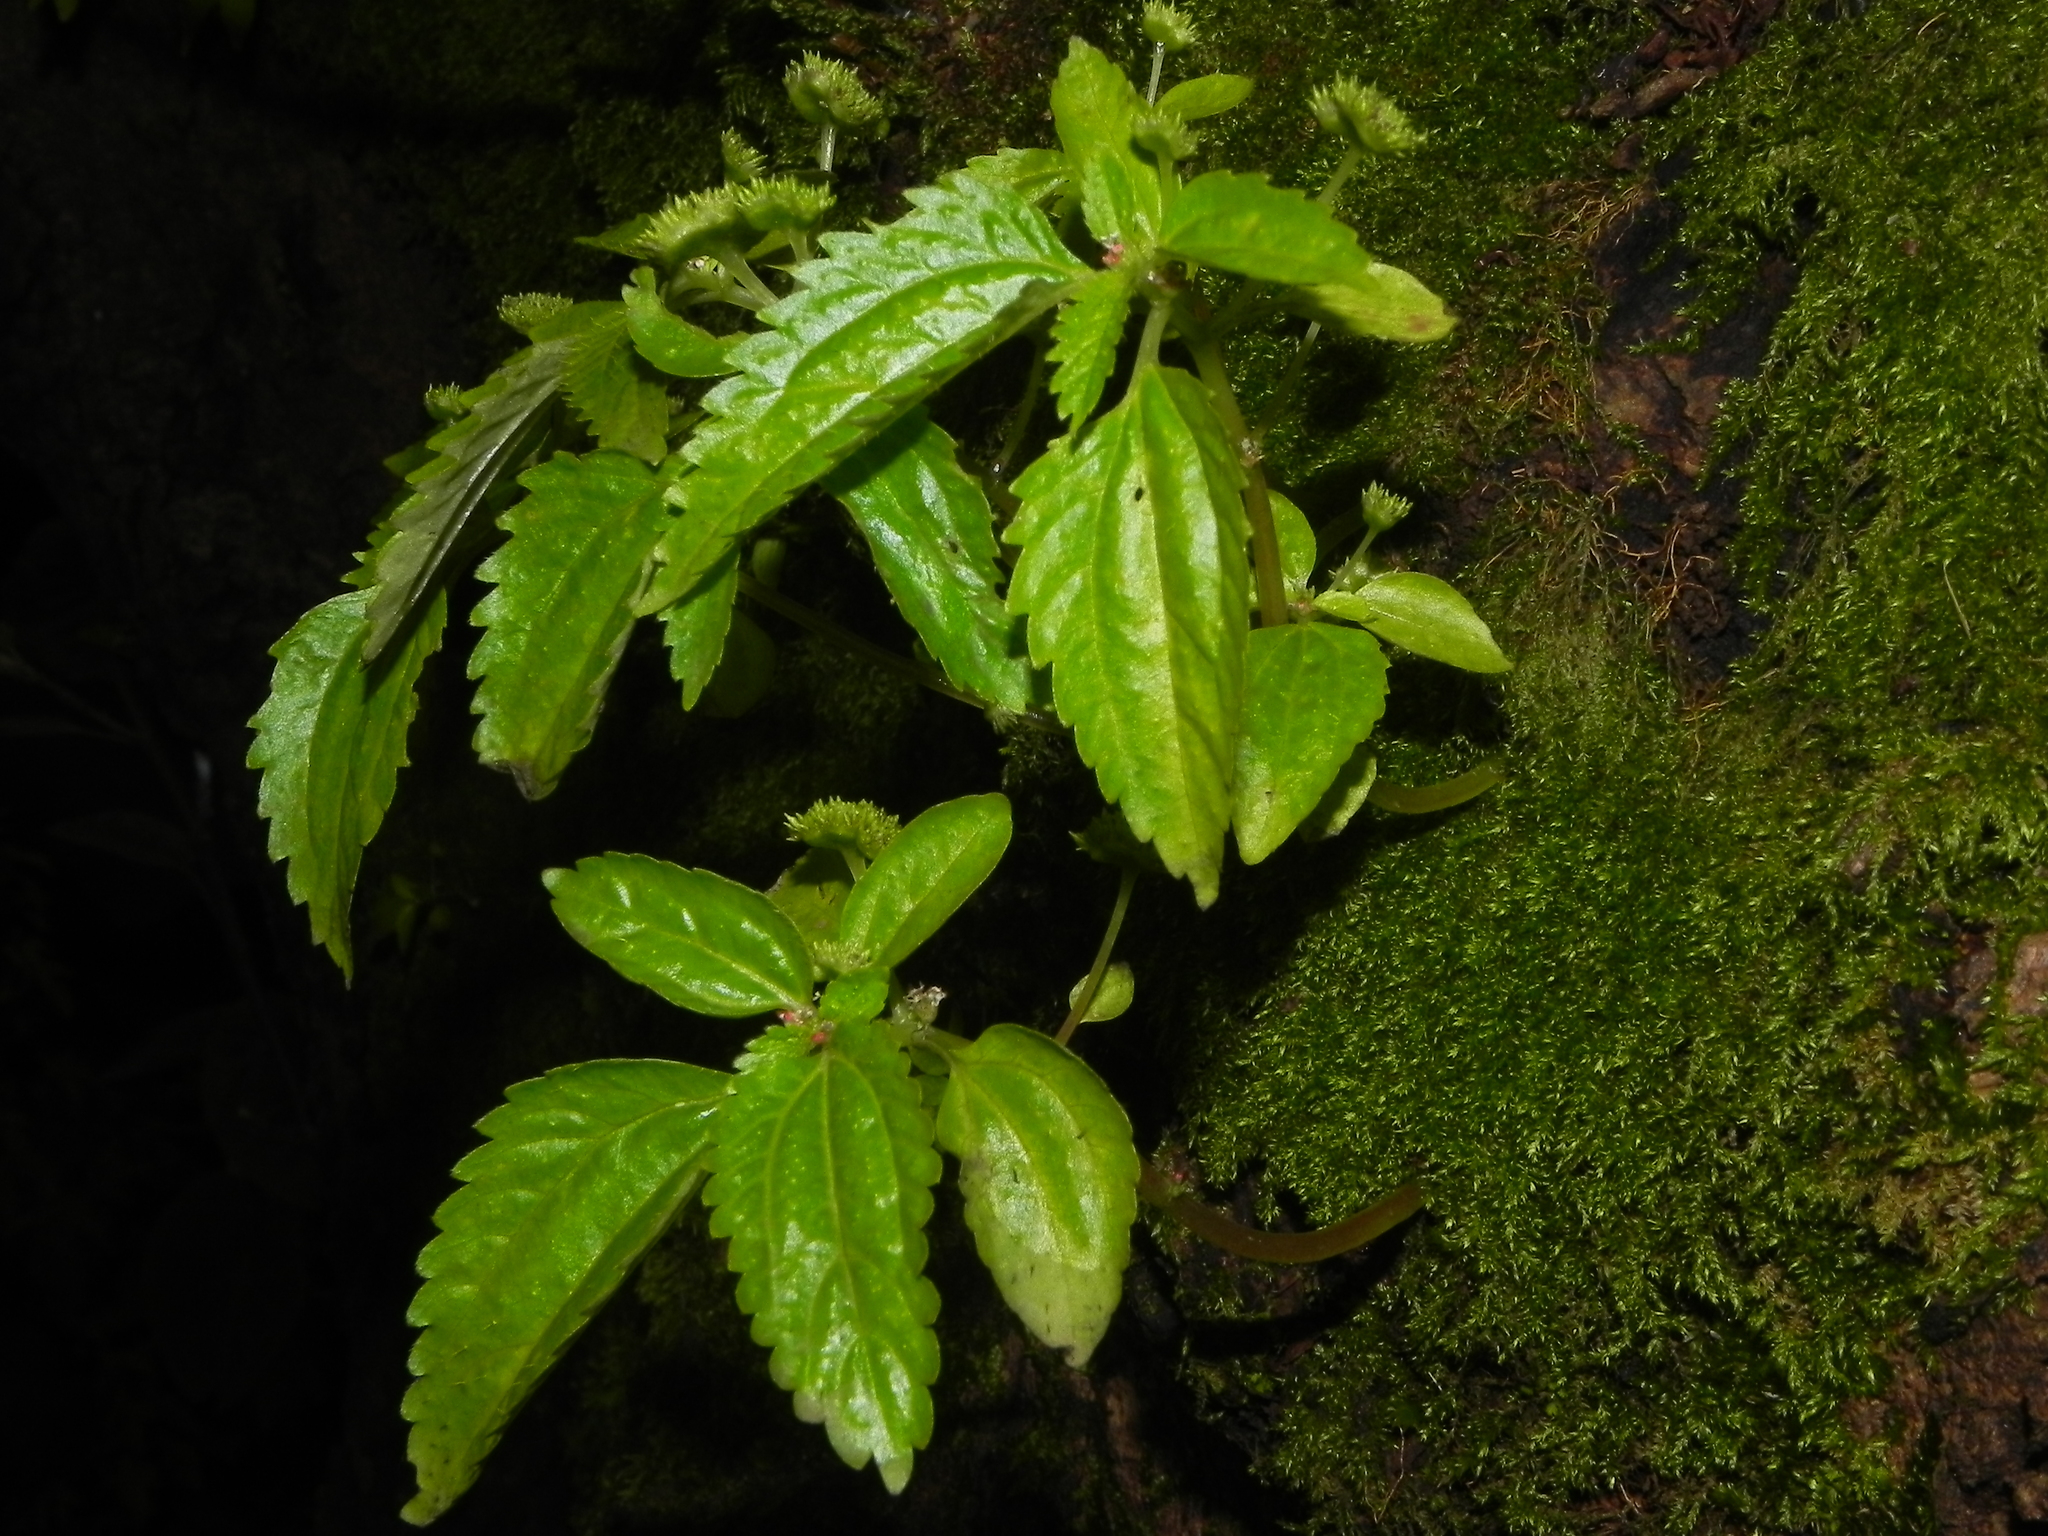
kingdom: Plantae
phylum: Tracheophyta
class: Magnoliopsida
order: Rosales
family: Urticaceae
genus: Lecanthus
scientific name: Lecanthus peduncularis
